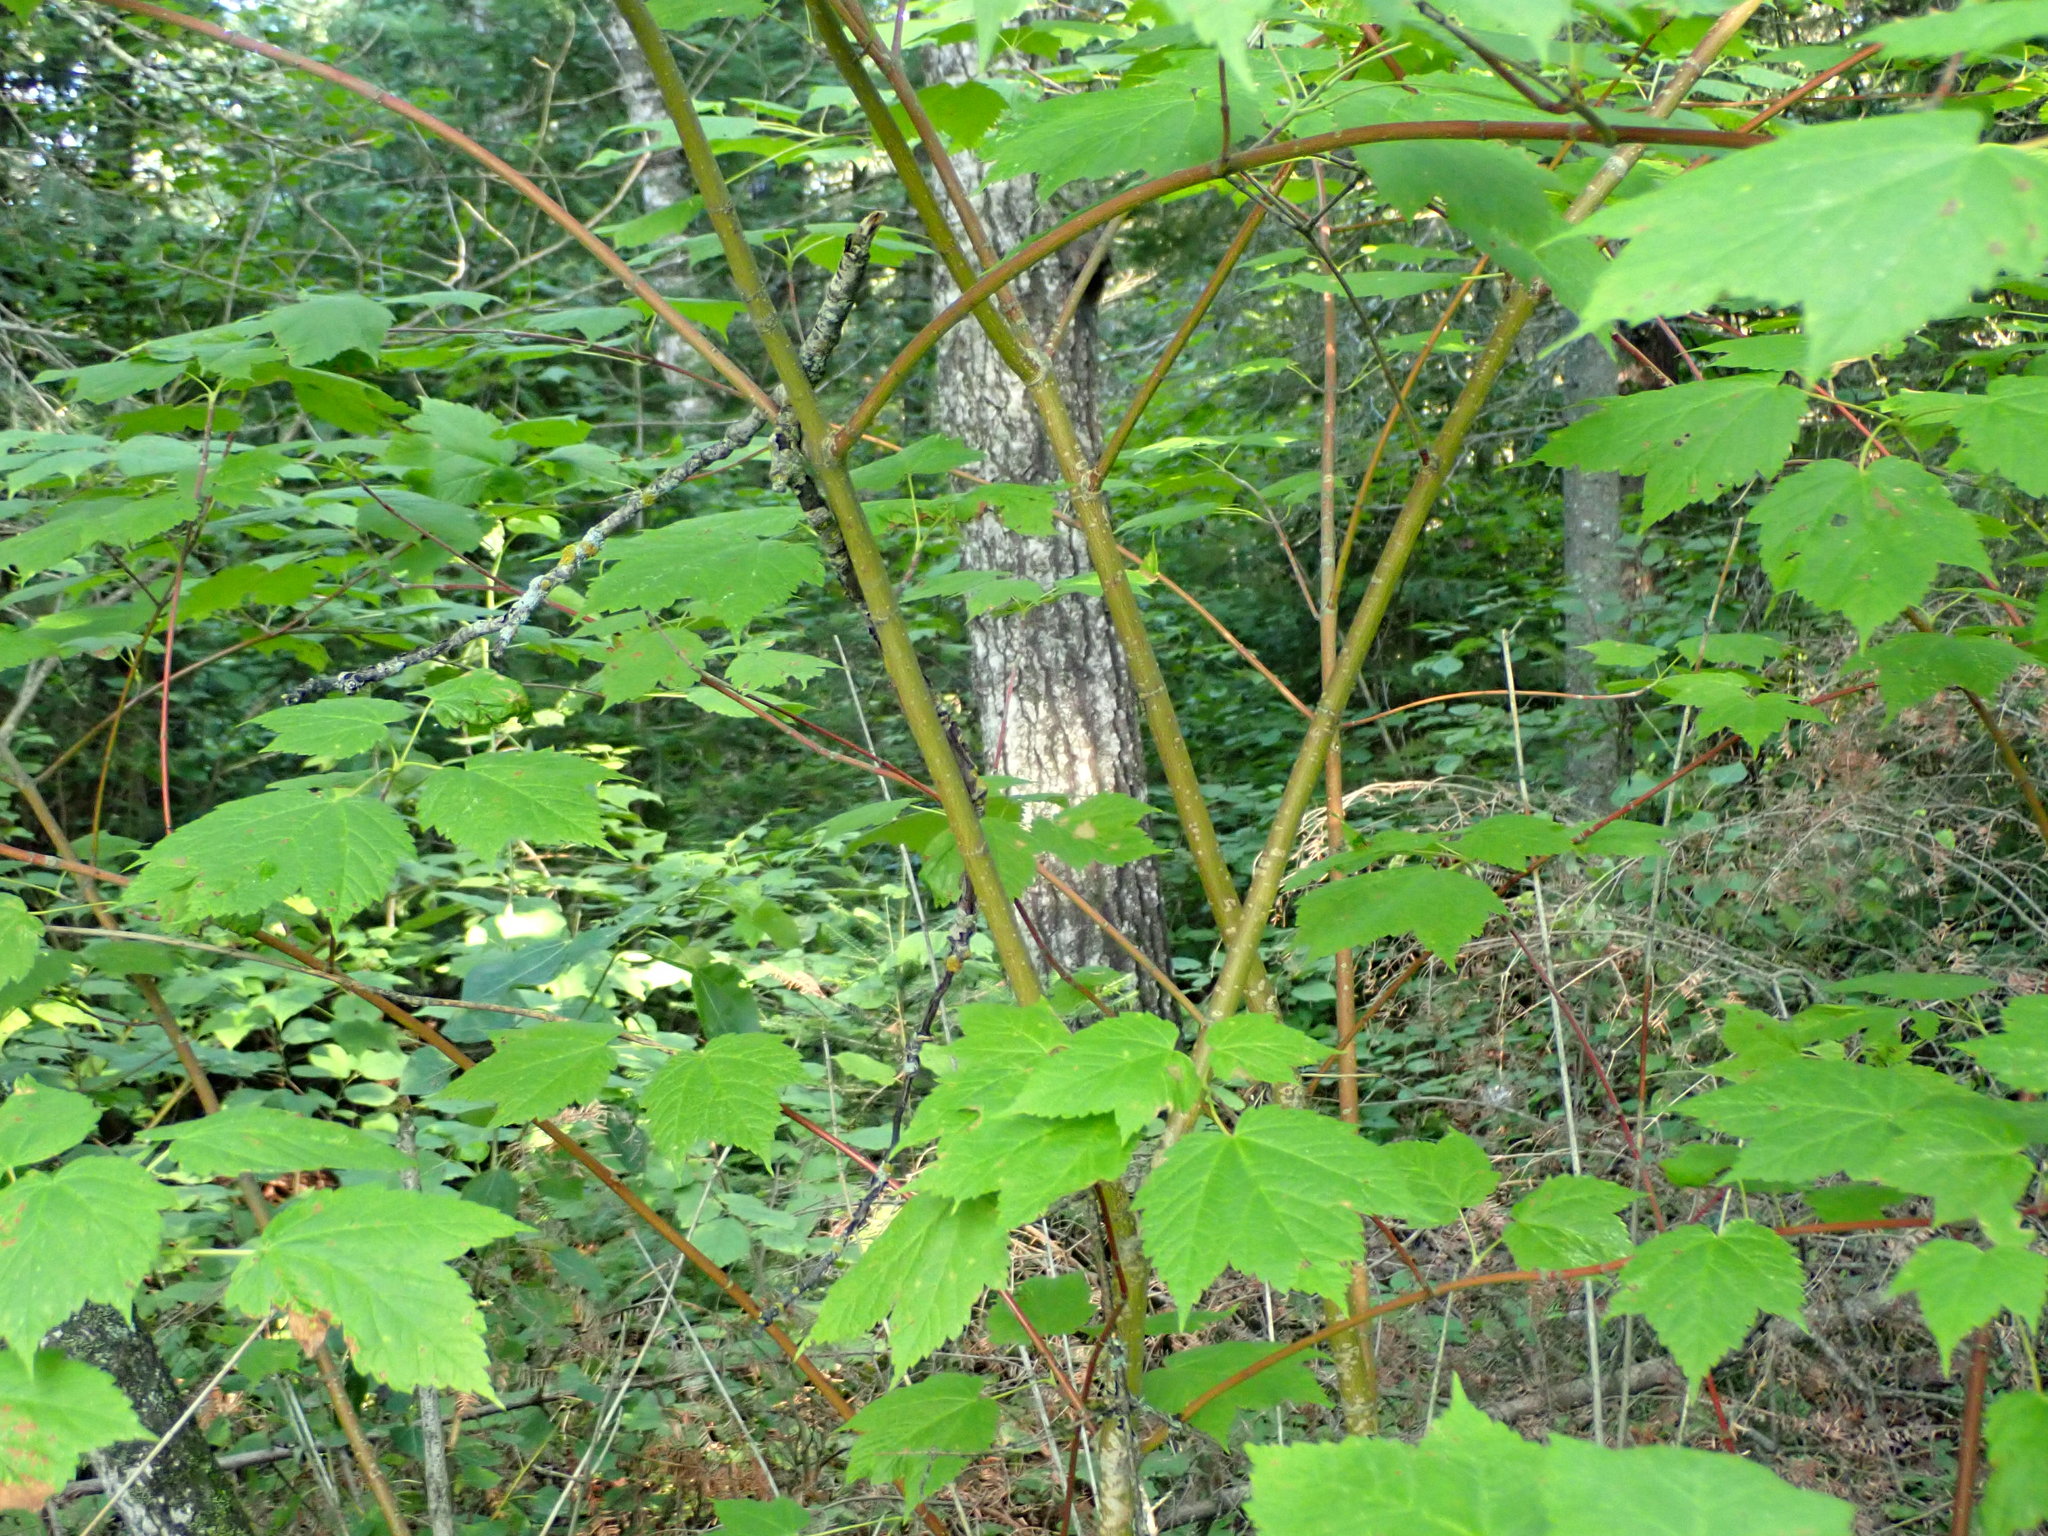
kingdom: Plantae
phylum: Tracheophyta
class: Magnoliopsida
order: Sapindales
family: Sapindaceae
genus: Acer
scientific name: Acer spicatum
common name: Mountain maple
